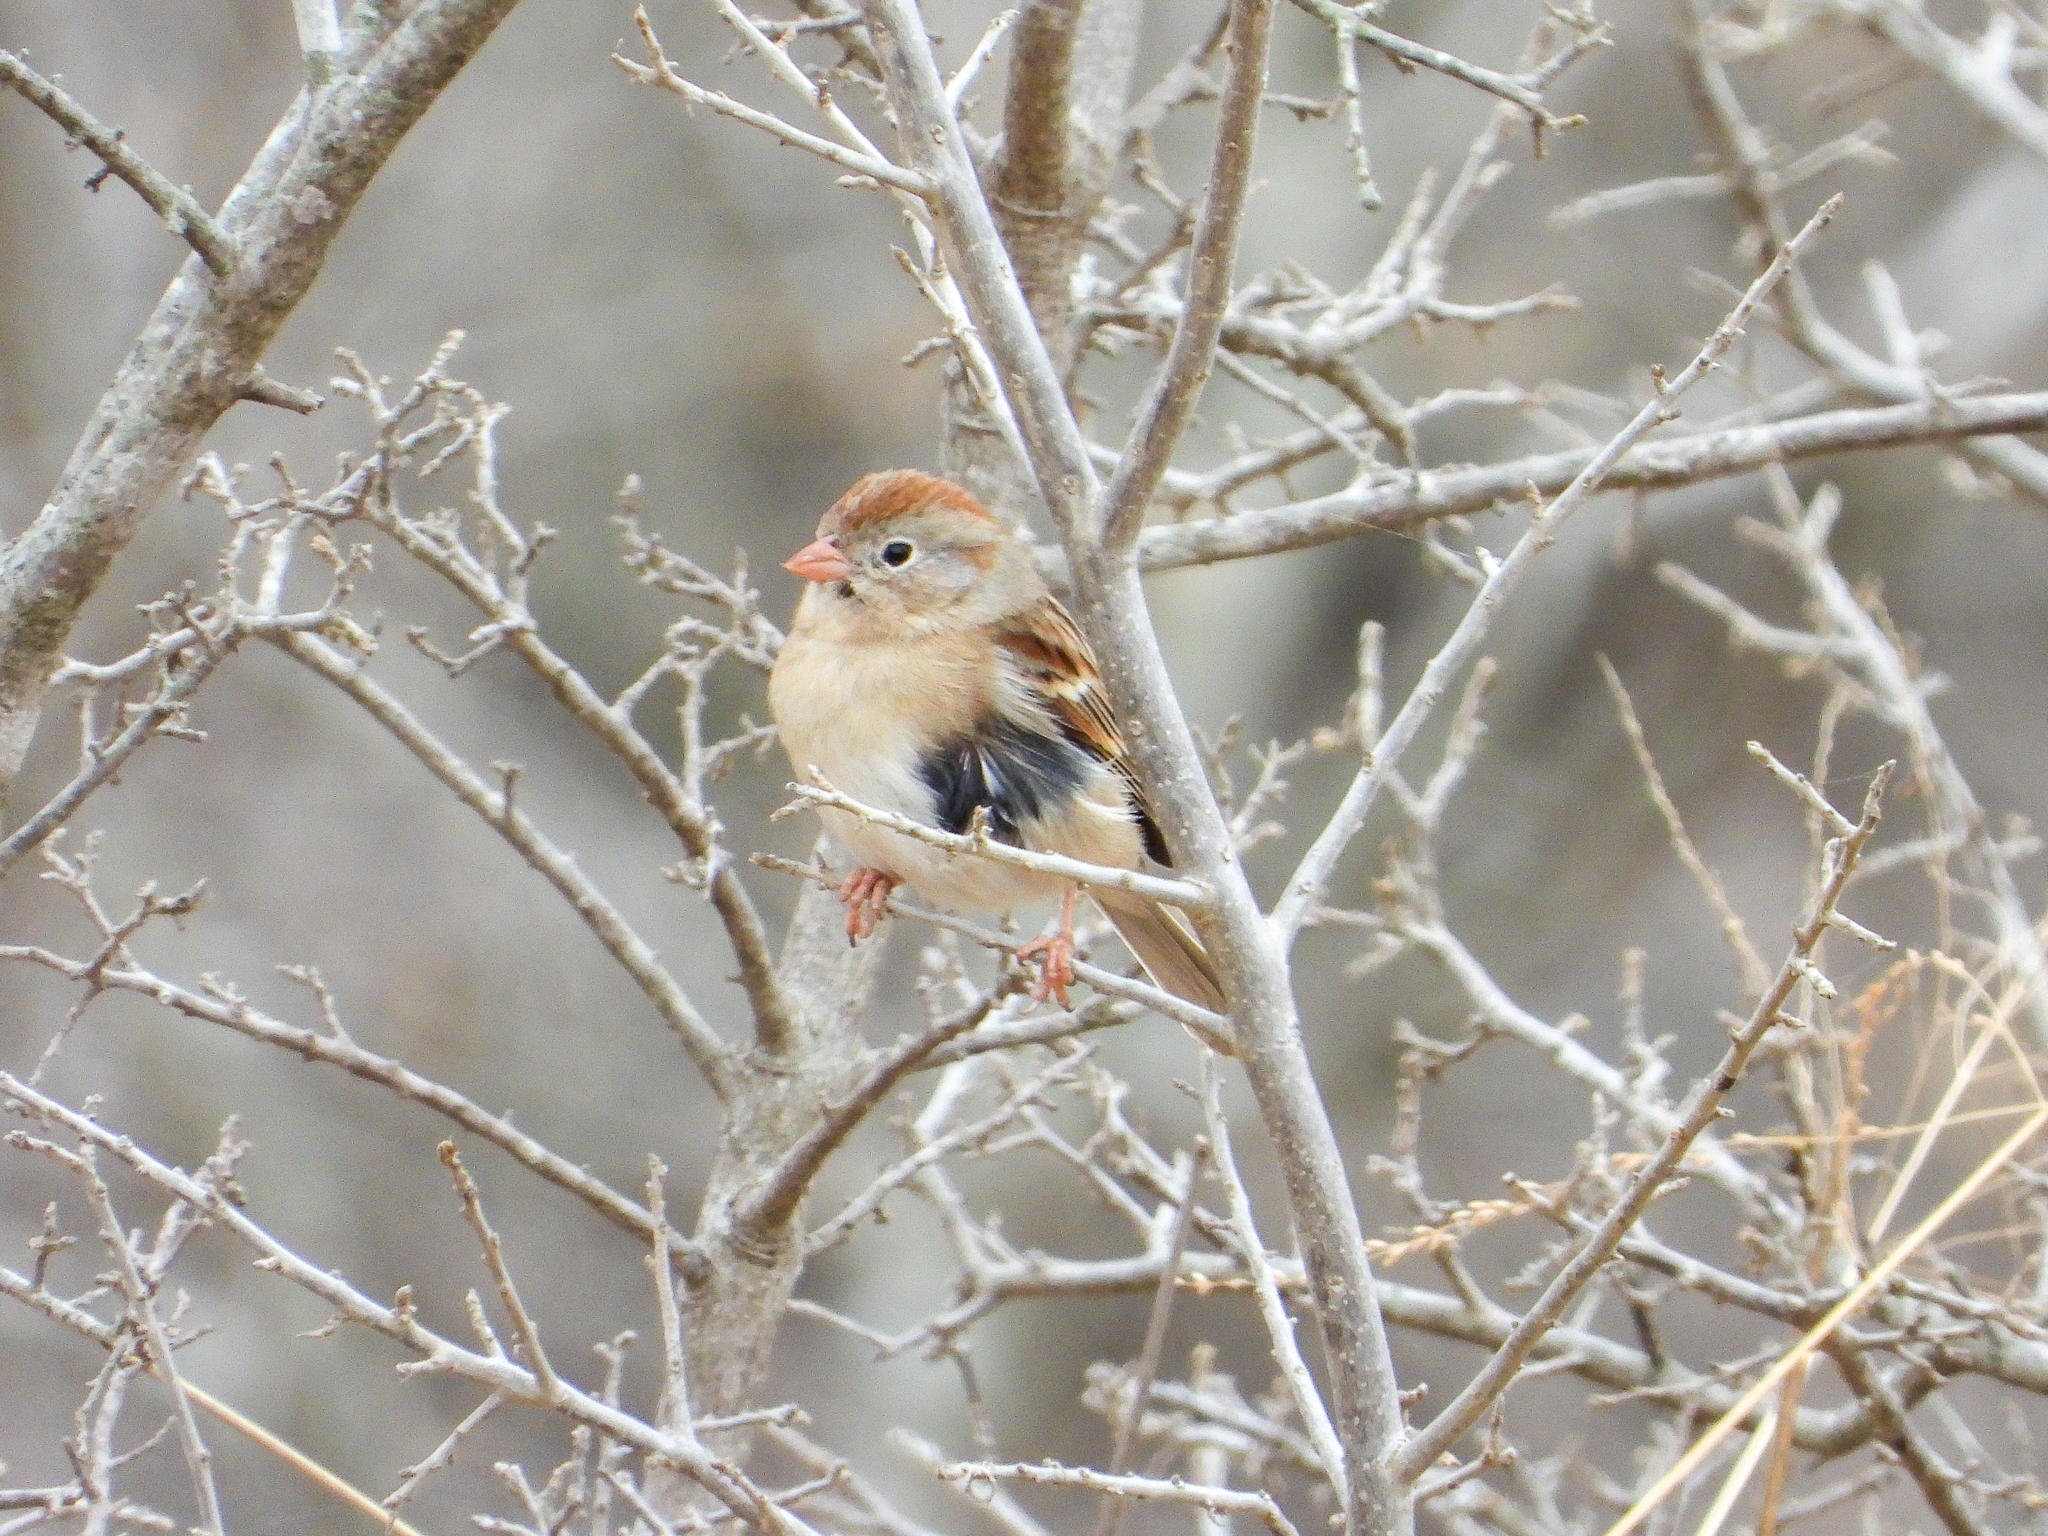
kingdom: Animalia
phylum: Chordata
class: Aves
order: Passeriformes
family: Passerellidae
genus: Spizella
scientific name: Spizella pusilla
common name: Field sparrow
